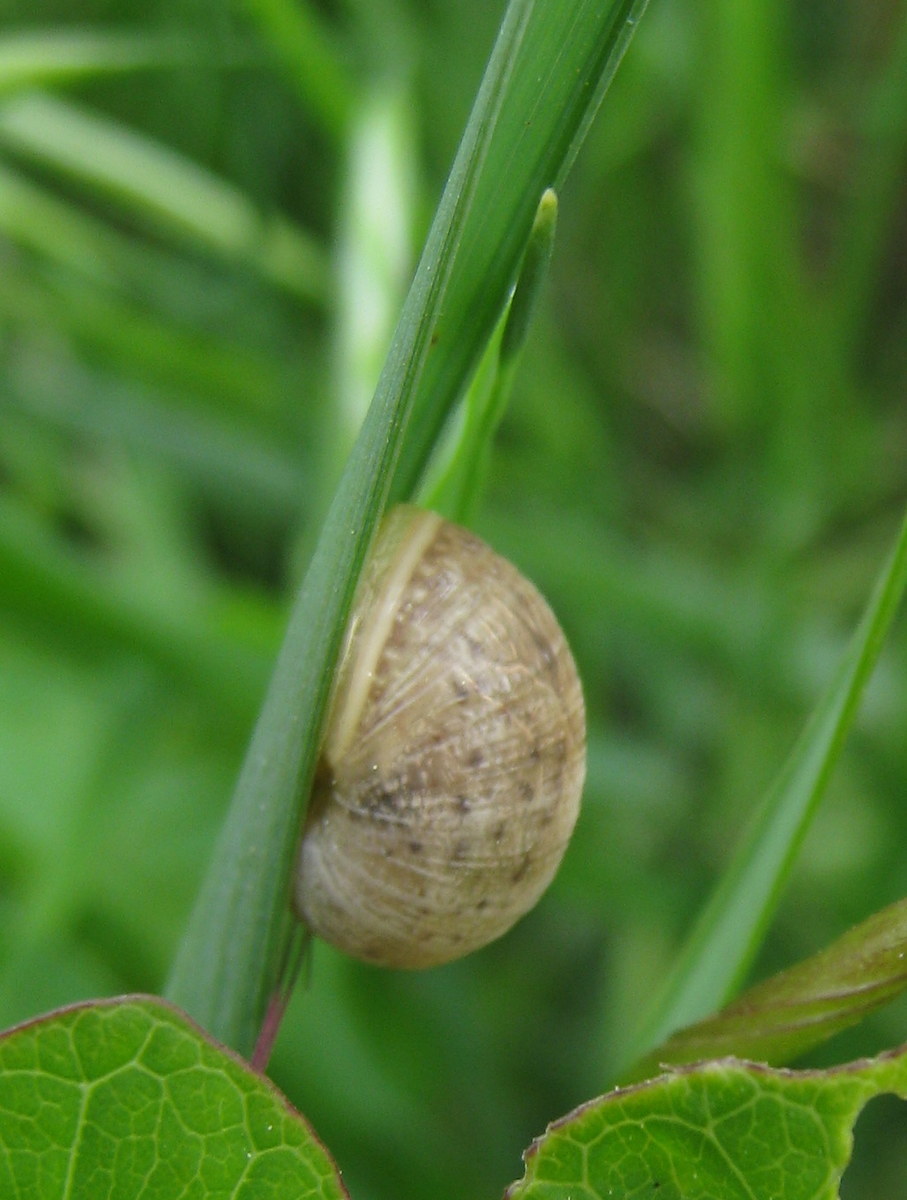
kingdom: Animalia
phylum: Mollusca
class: Gastropoda
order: Stylommatophora
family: Helicidae
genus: Cornu
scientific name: Cornu aspersum
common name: Brown garden snail
